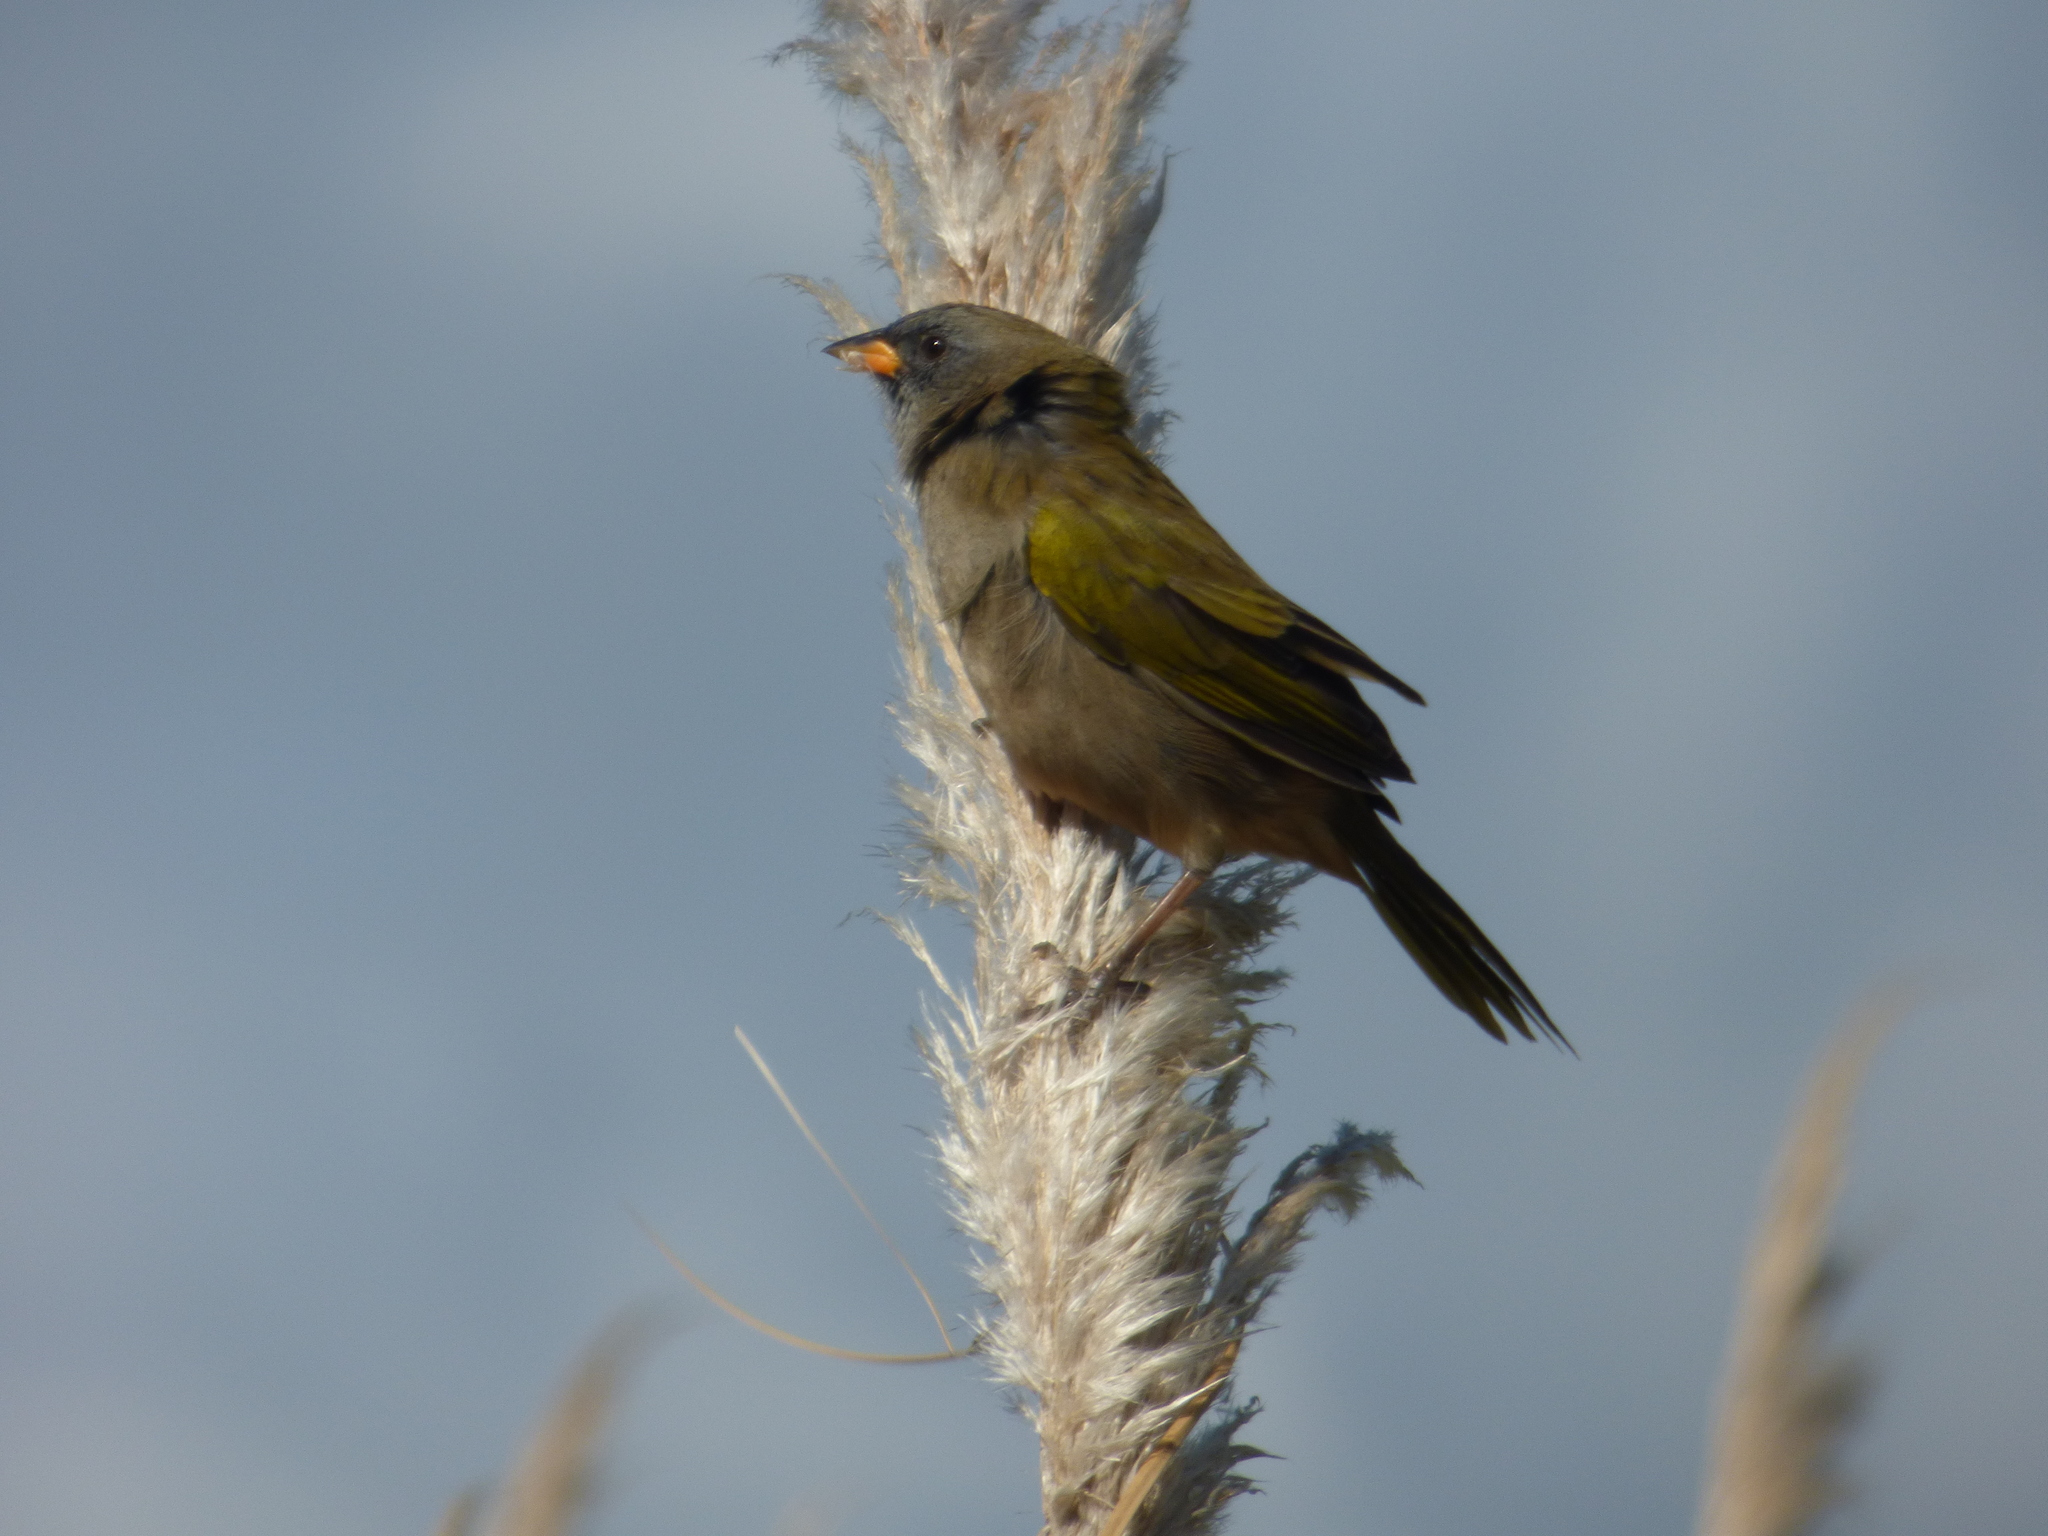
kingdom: Animalia
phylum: Chordata
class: Aves
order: Passeriformes
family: Thraupidae
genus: Embernagra
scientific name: Embernagra platensis
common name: Pampa finch
